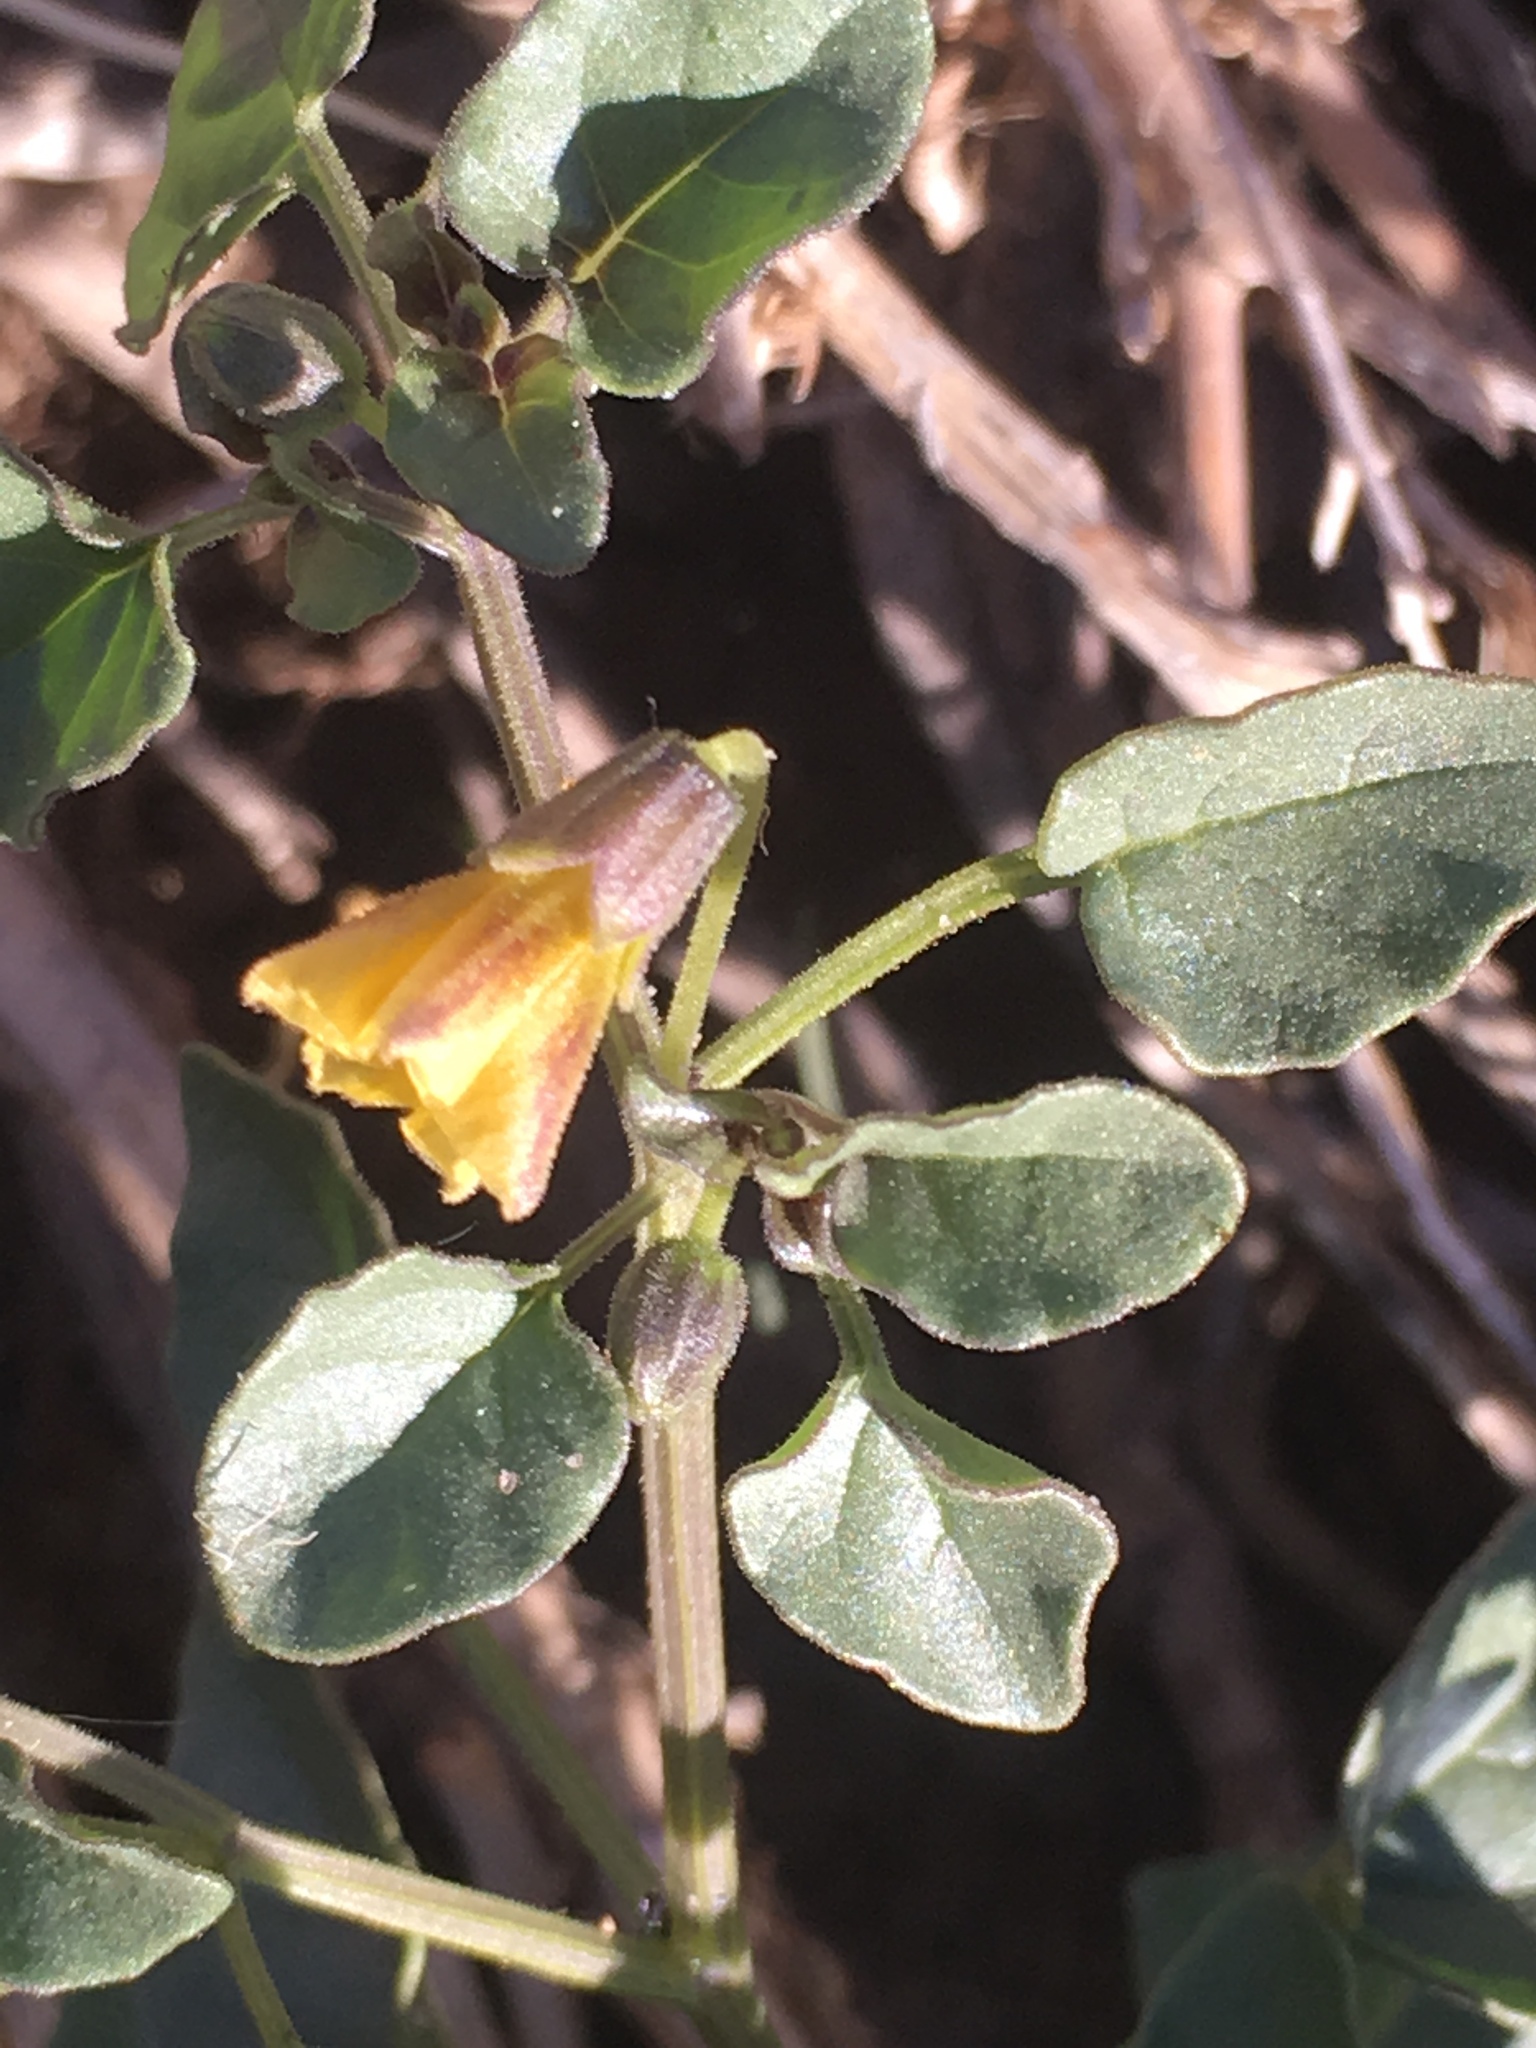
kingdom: Plantae
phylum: Tracheophyta
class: Magnoliopsida
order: Solanales
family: Solanaceae
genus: Physalis
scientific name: Physalis crassifolia
